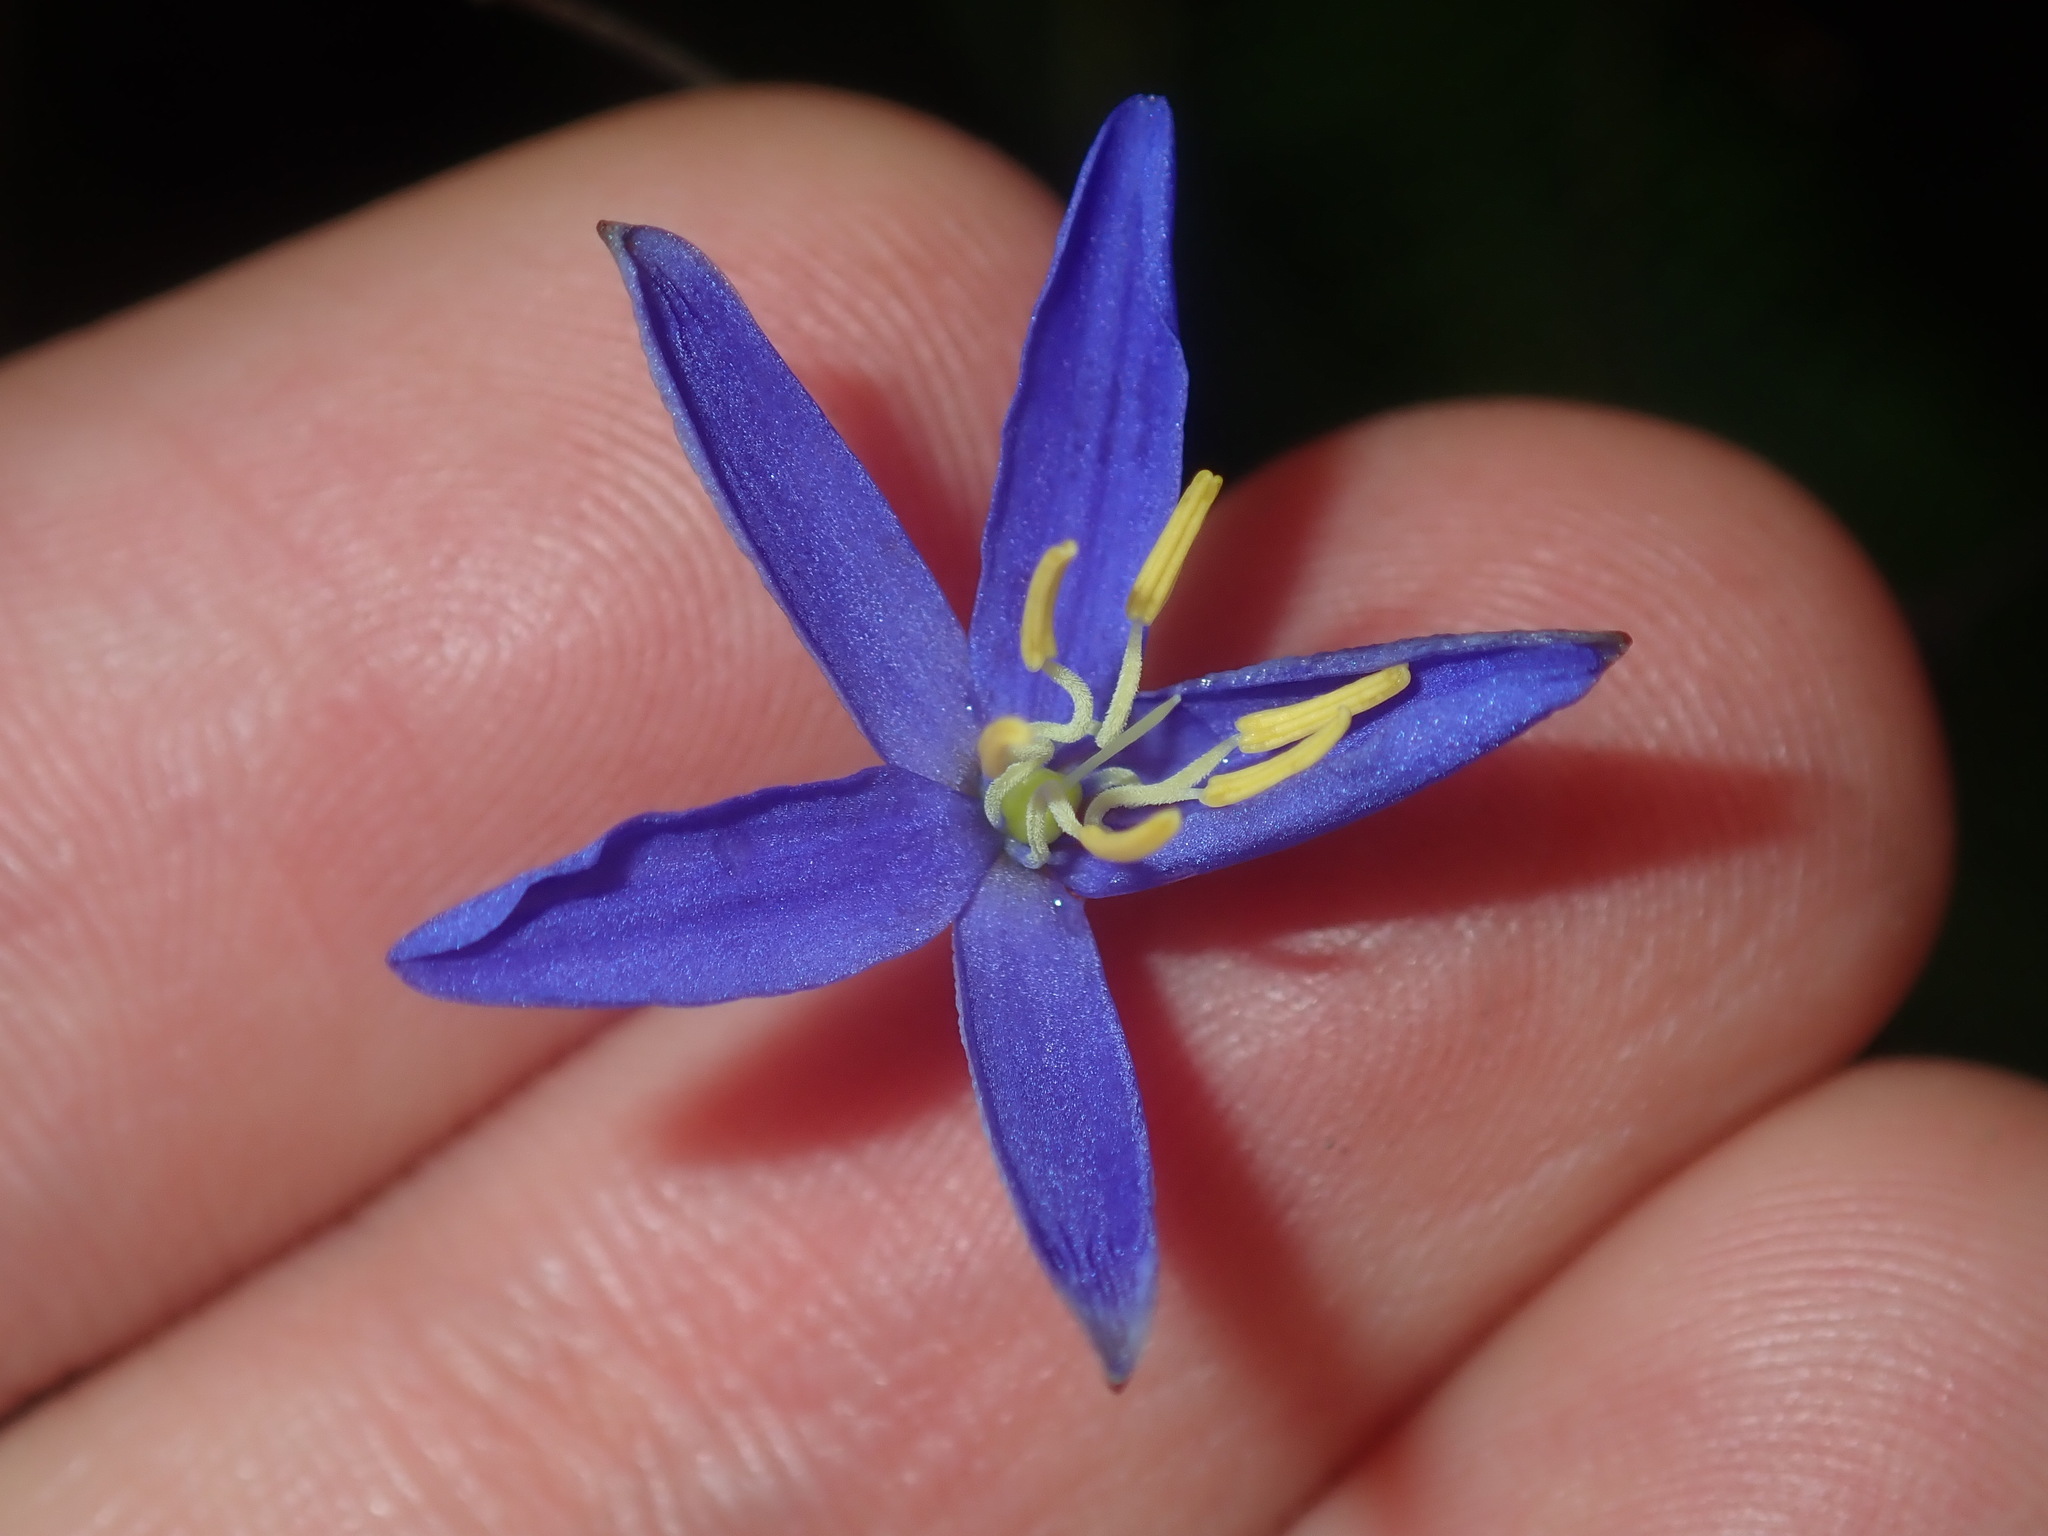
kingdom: Plantae
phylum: Tracheophyta
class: Liliopsida
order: Asparagales
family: Asphodelaceae
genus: Thelionema
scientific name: Thelionema caespitosum
